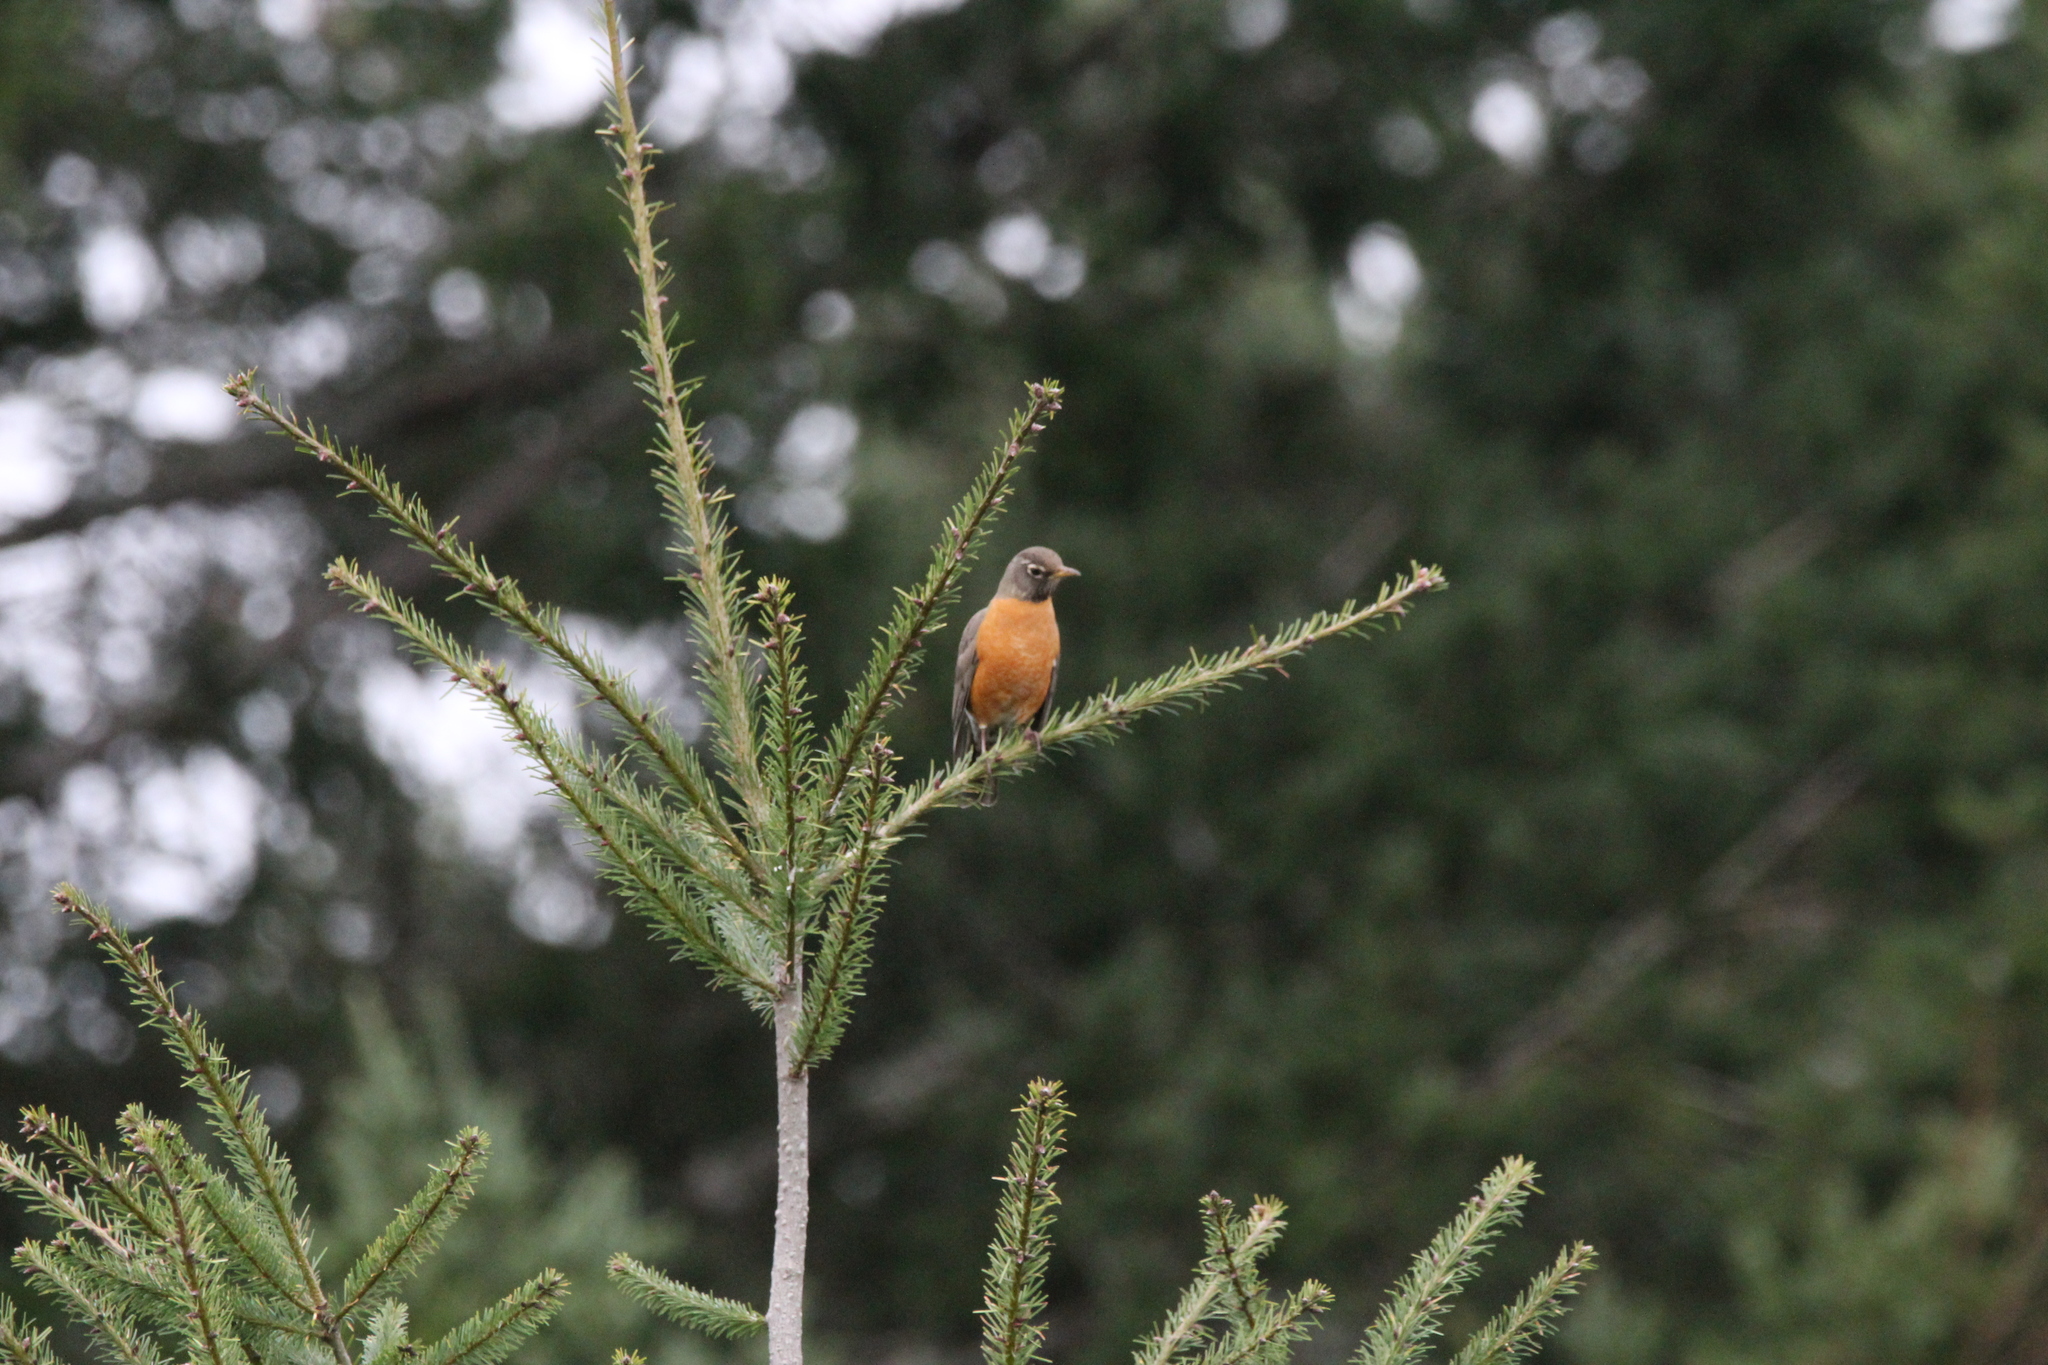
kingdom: Animalia
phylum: Chordata
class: Aves
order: Passeriformes
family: Turdidae
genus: Turdus
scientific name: Turdus migratorius
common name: American robin
